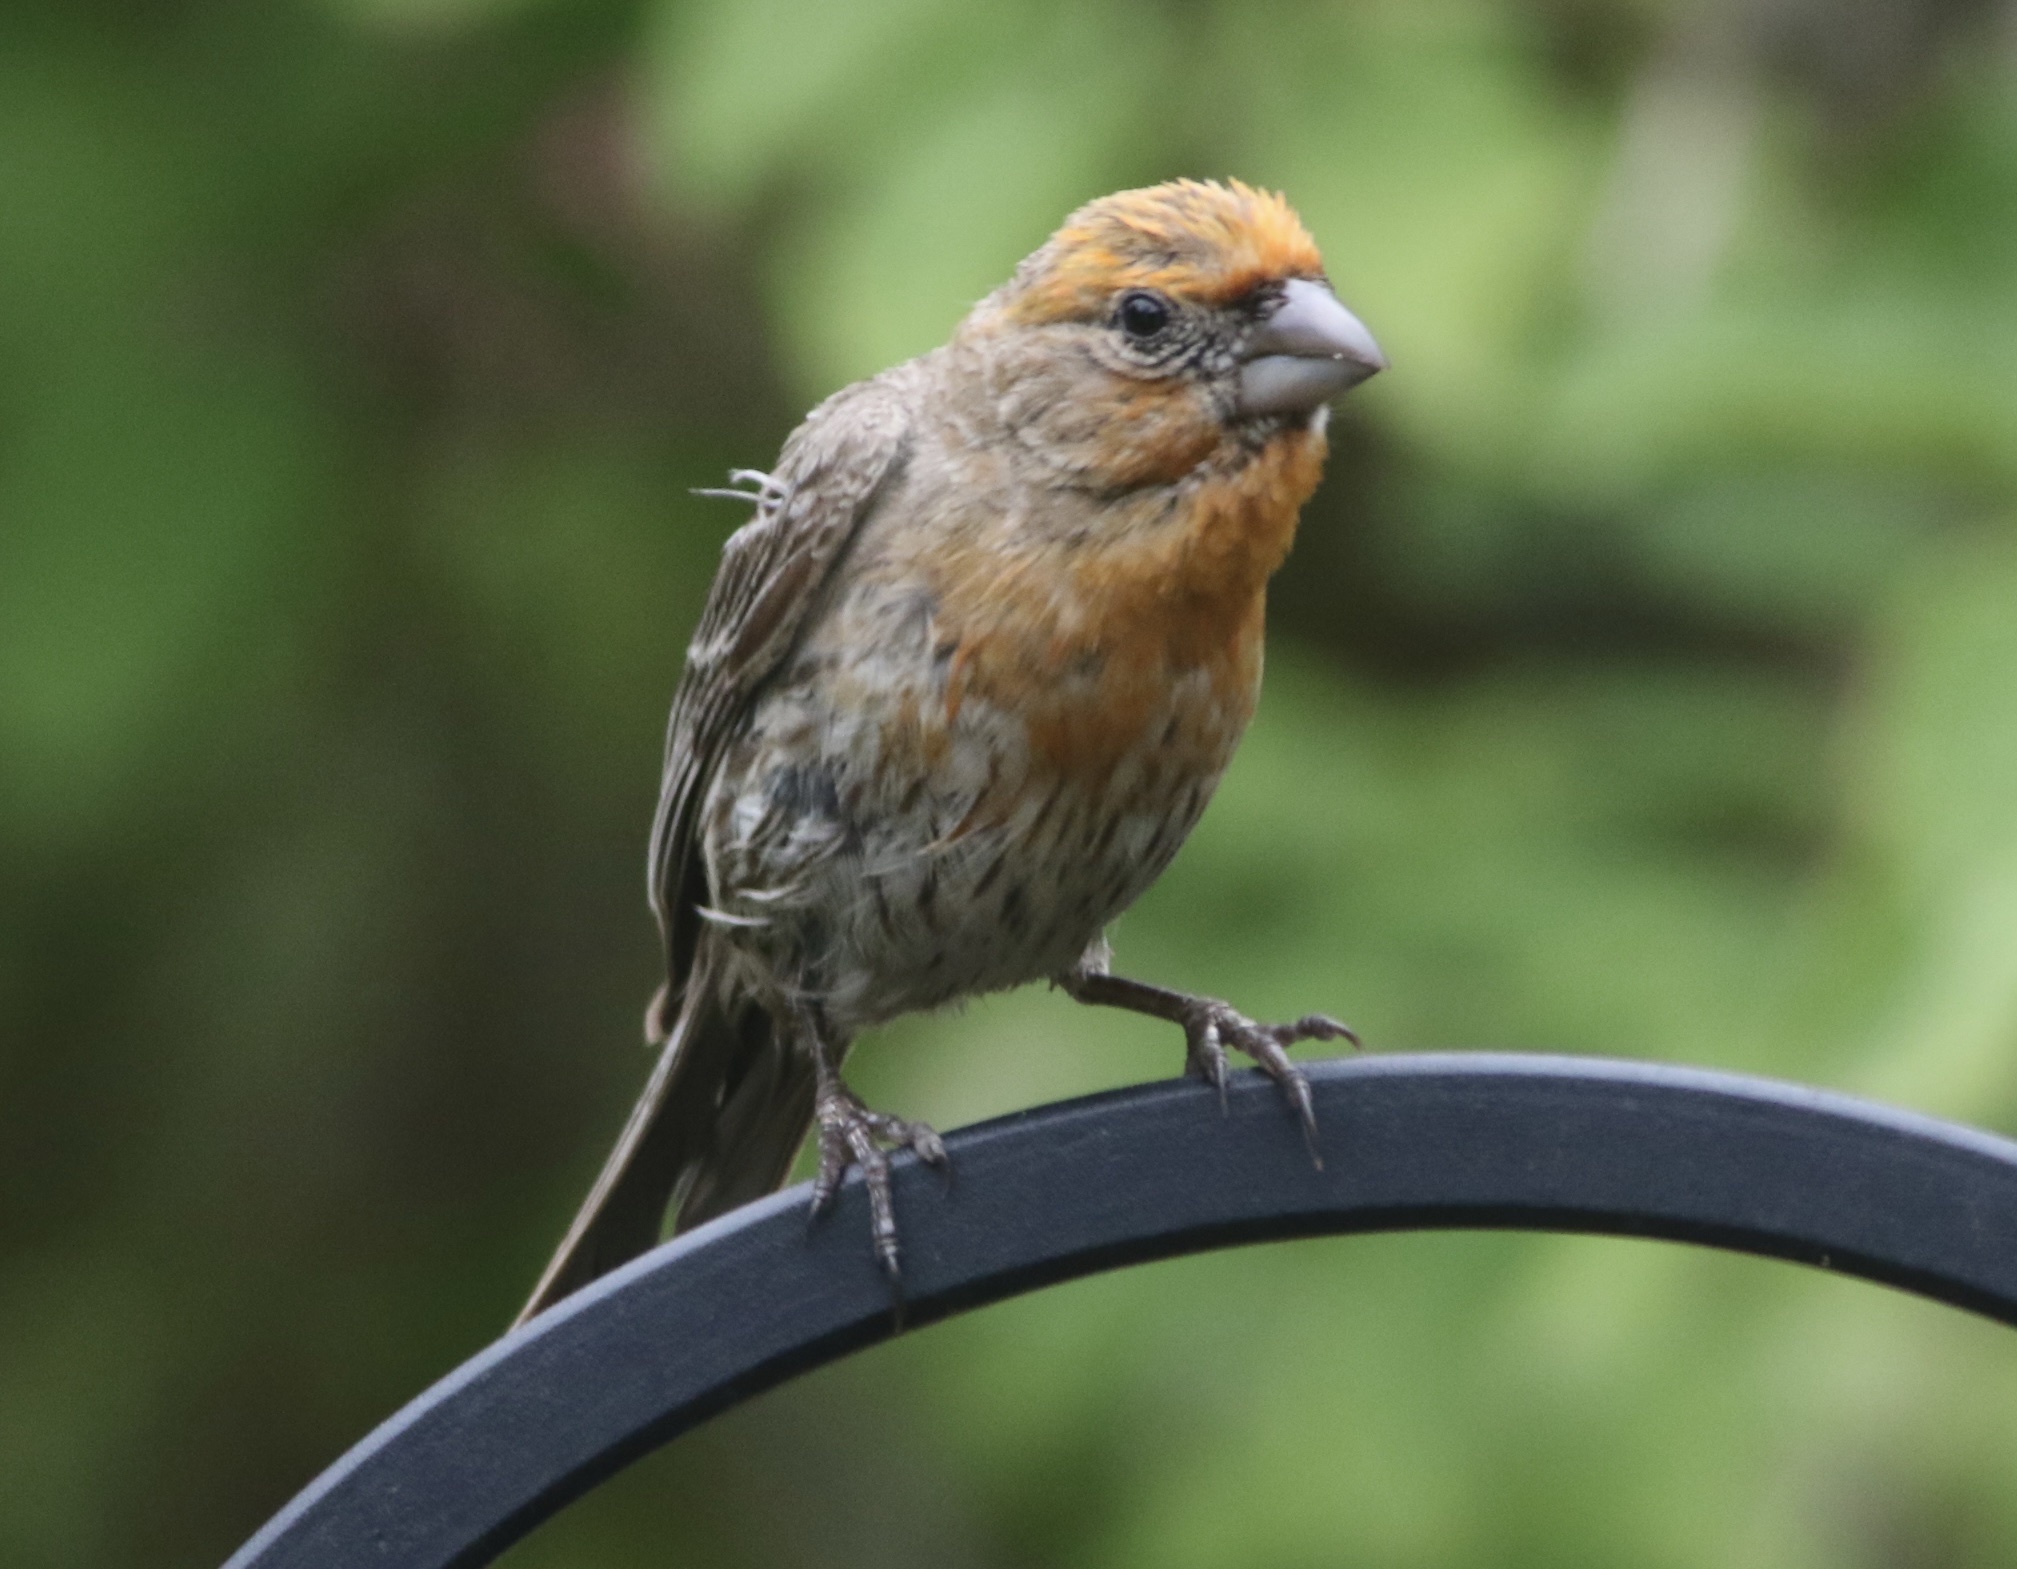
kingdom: Animalia
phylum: Chordata
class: Aves
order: Passeriformes
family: Fringillidae
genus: Haemorhous
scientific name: Haemorhous mexicanus
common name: House finch
